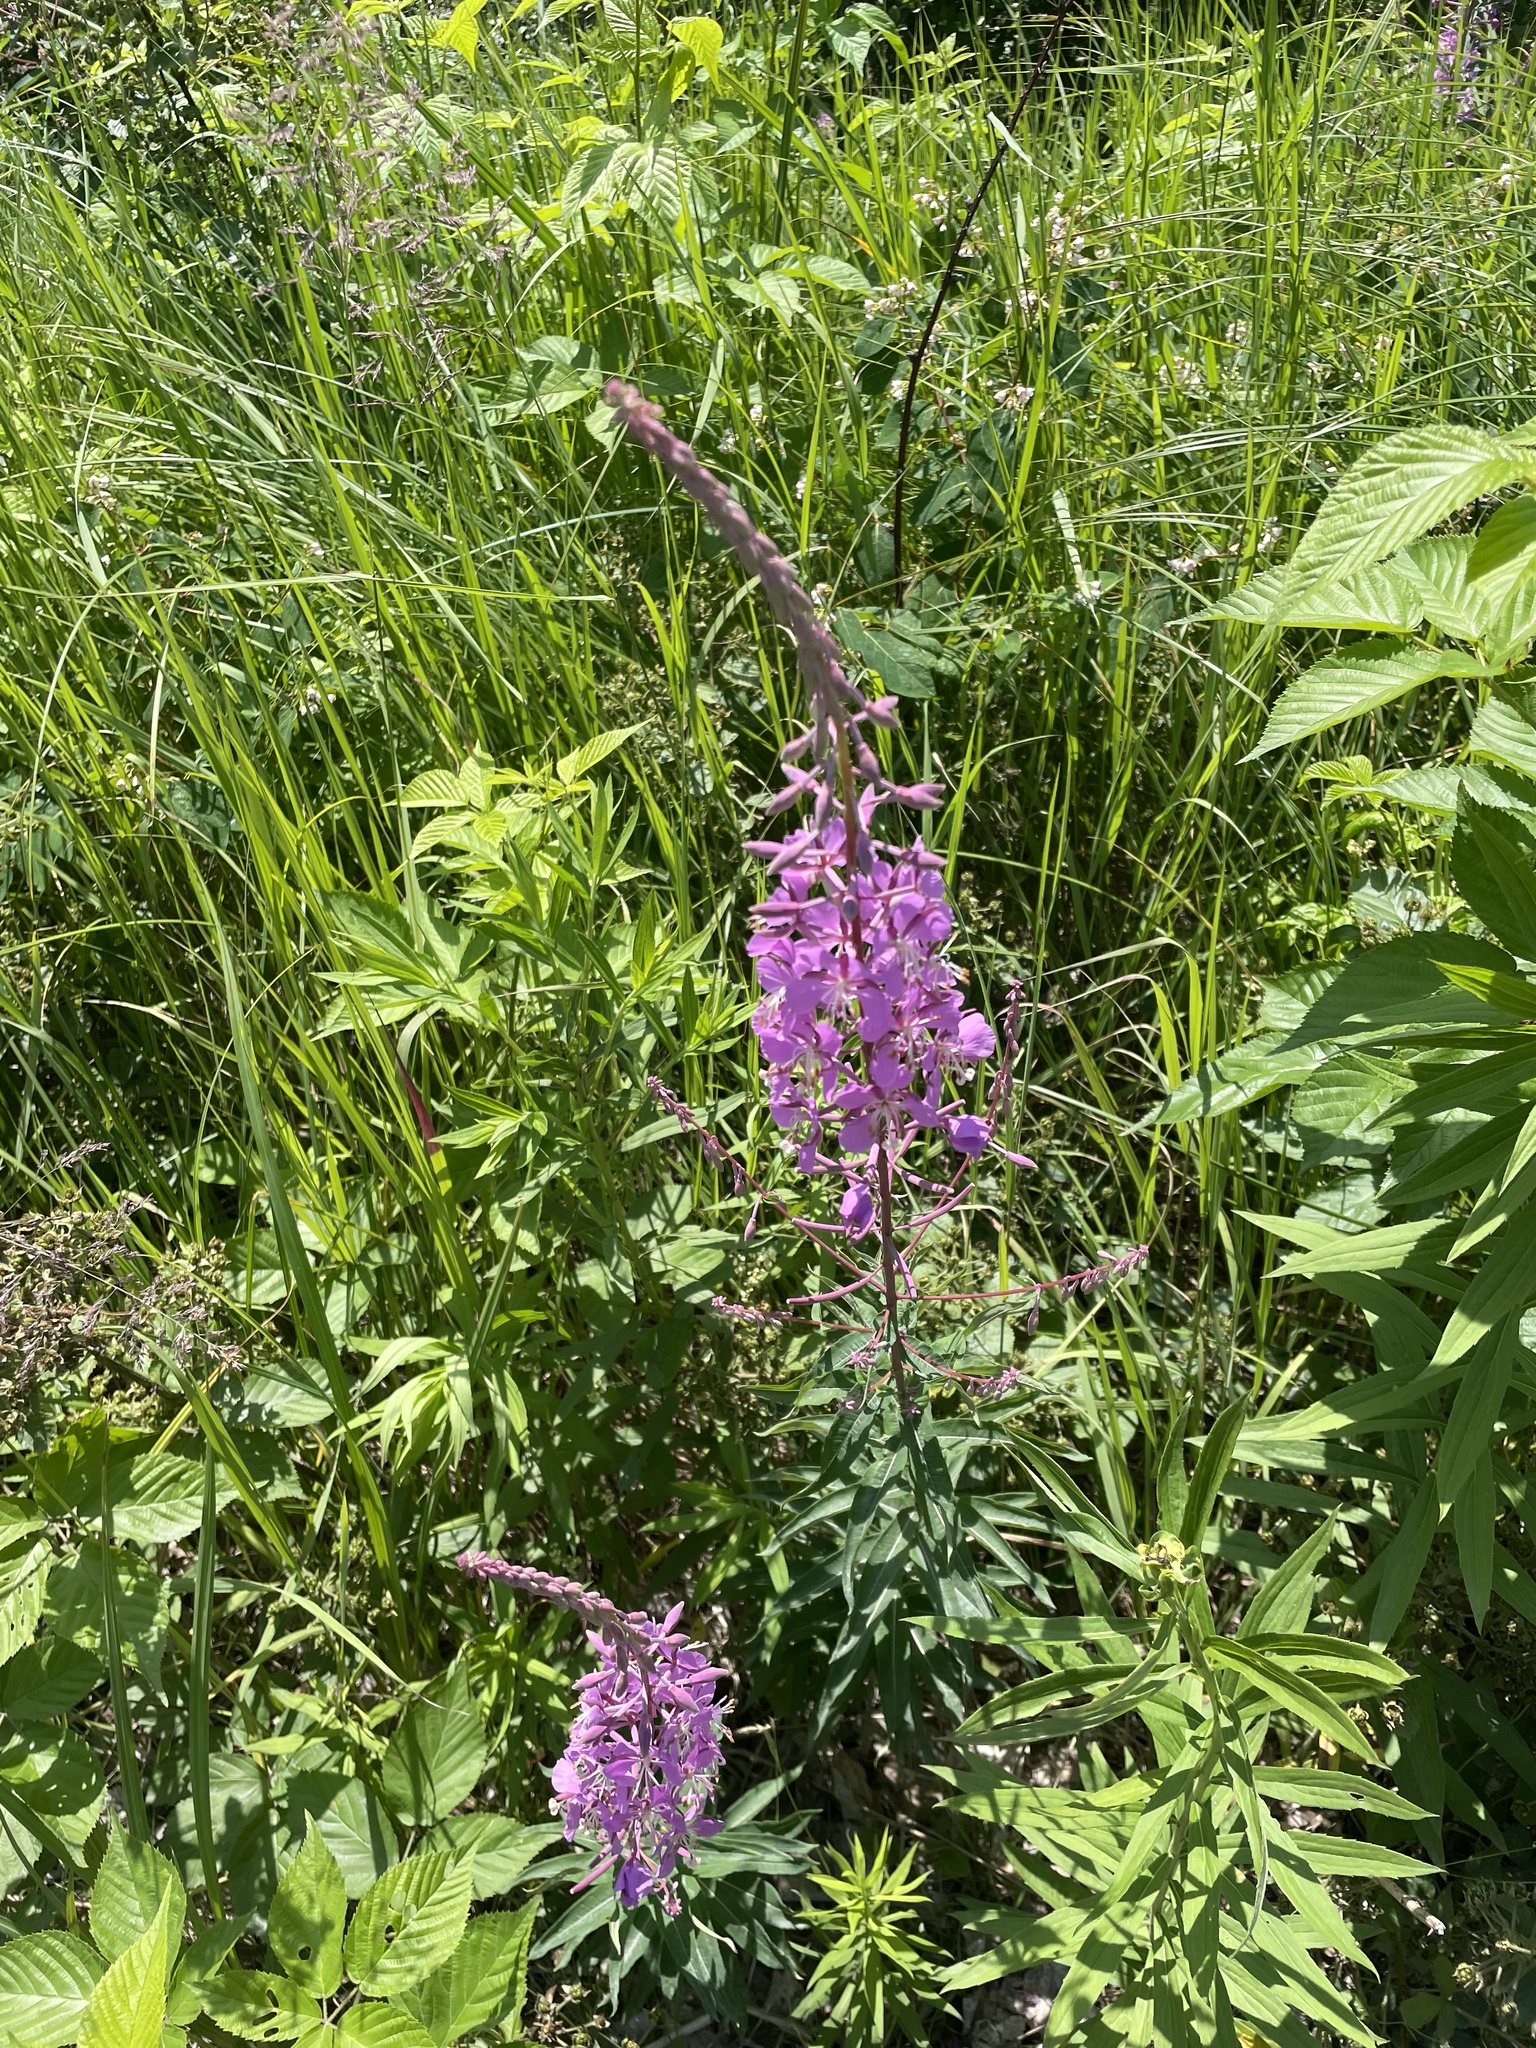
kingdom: Plantae
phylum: Tracheophyta
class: Magnoliopsida
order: Myrtales
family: Onagraceae
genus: Chamaenerion
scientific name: Chamaenerion angustifolium
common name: Fireweed
